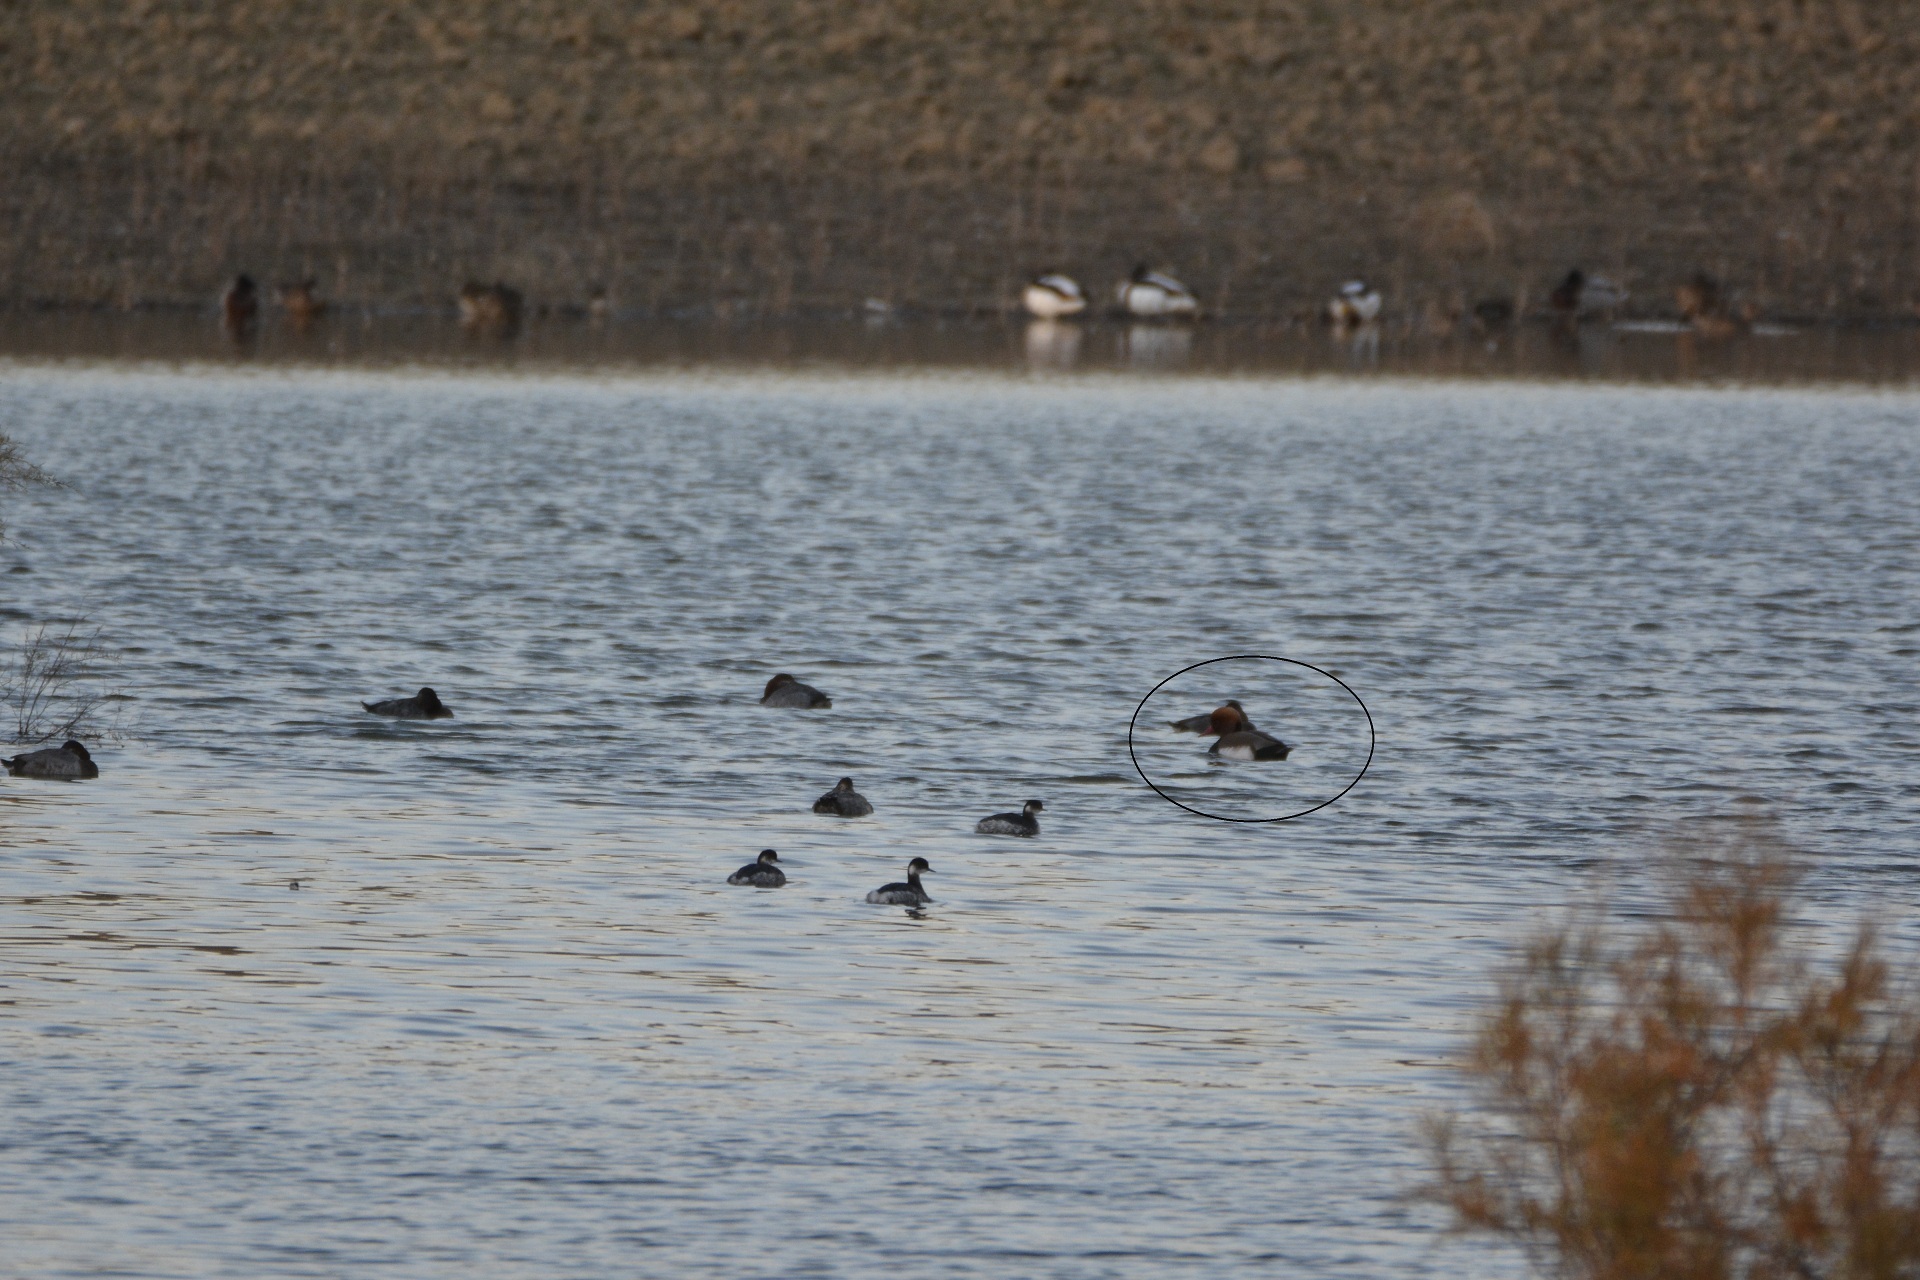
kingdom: Animalia
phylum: Chordata
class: Aves
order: Anseriformes
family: Anatidae
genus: Netta
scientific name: Netta rufina
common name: Red-crested pochard
